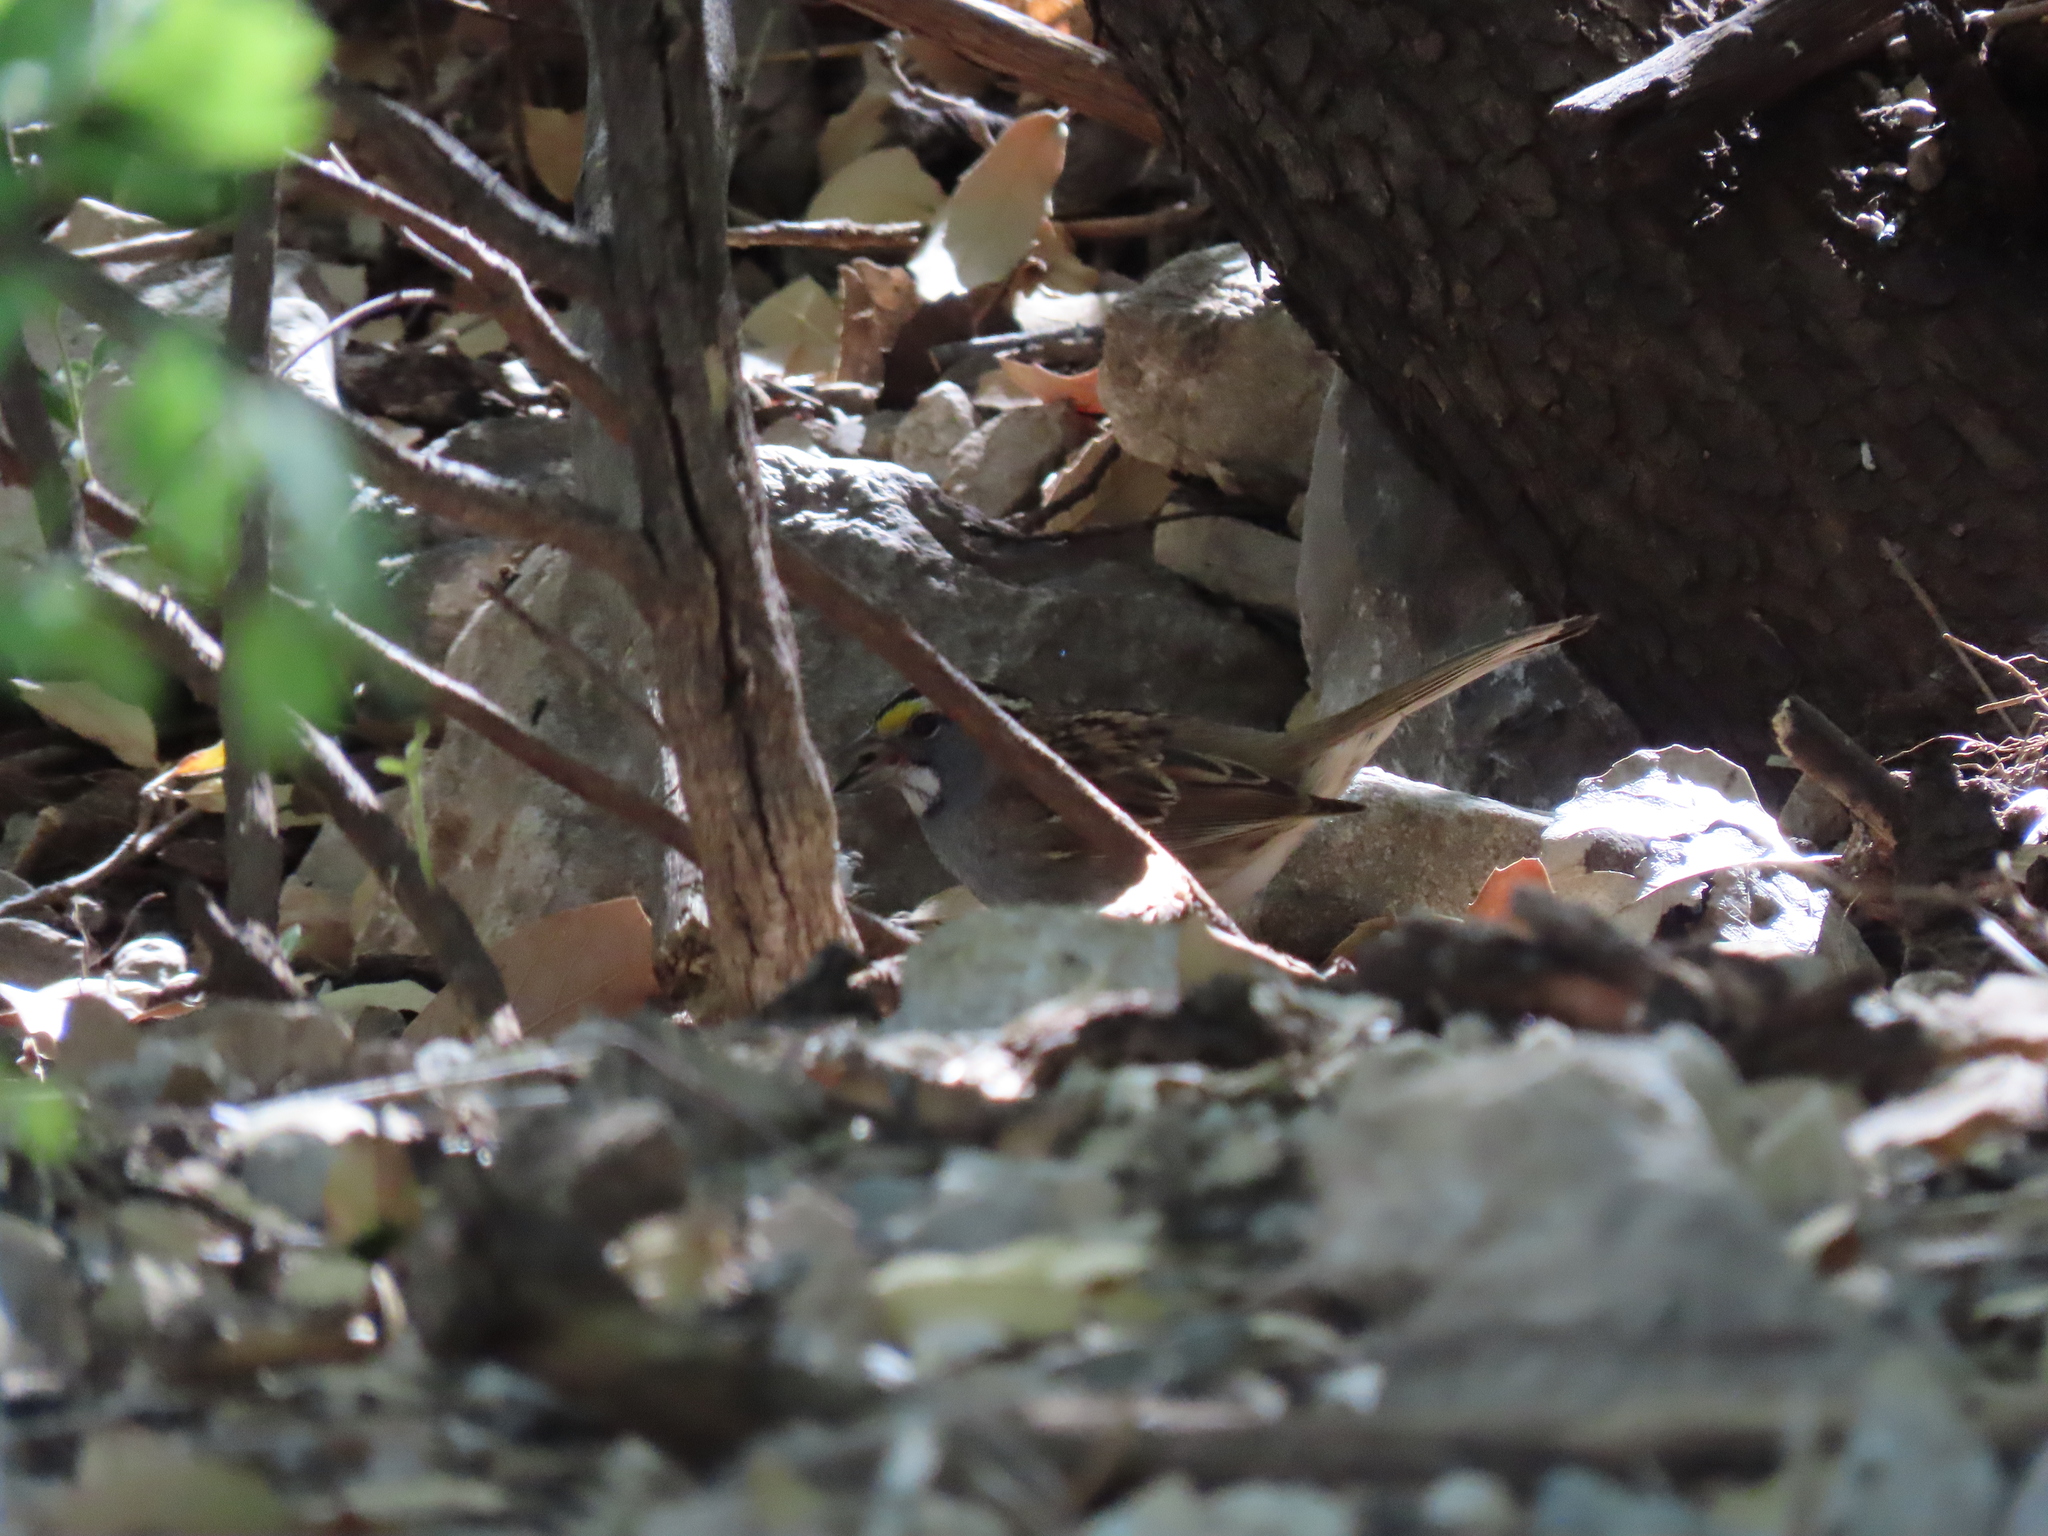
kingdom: Animalia
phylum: Chordata
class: Aves
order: Passeriformes
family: Passerellidae
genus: Zonotrichia
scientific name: Zonotrichia albicollis
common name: White-throated sparrow
